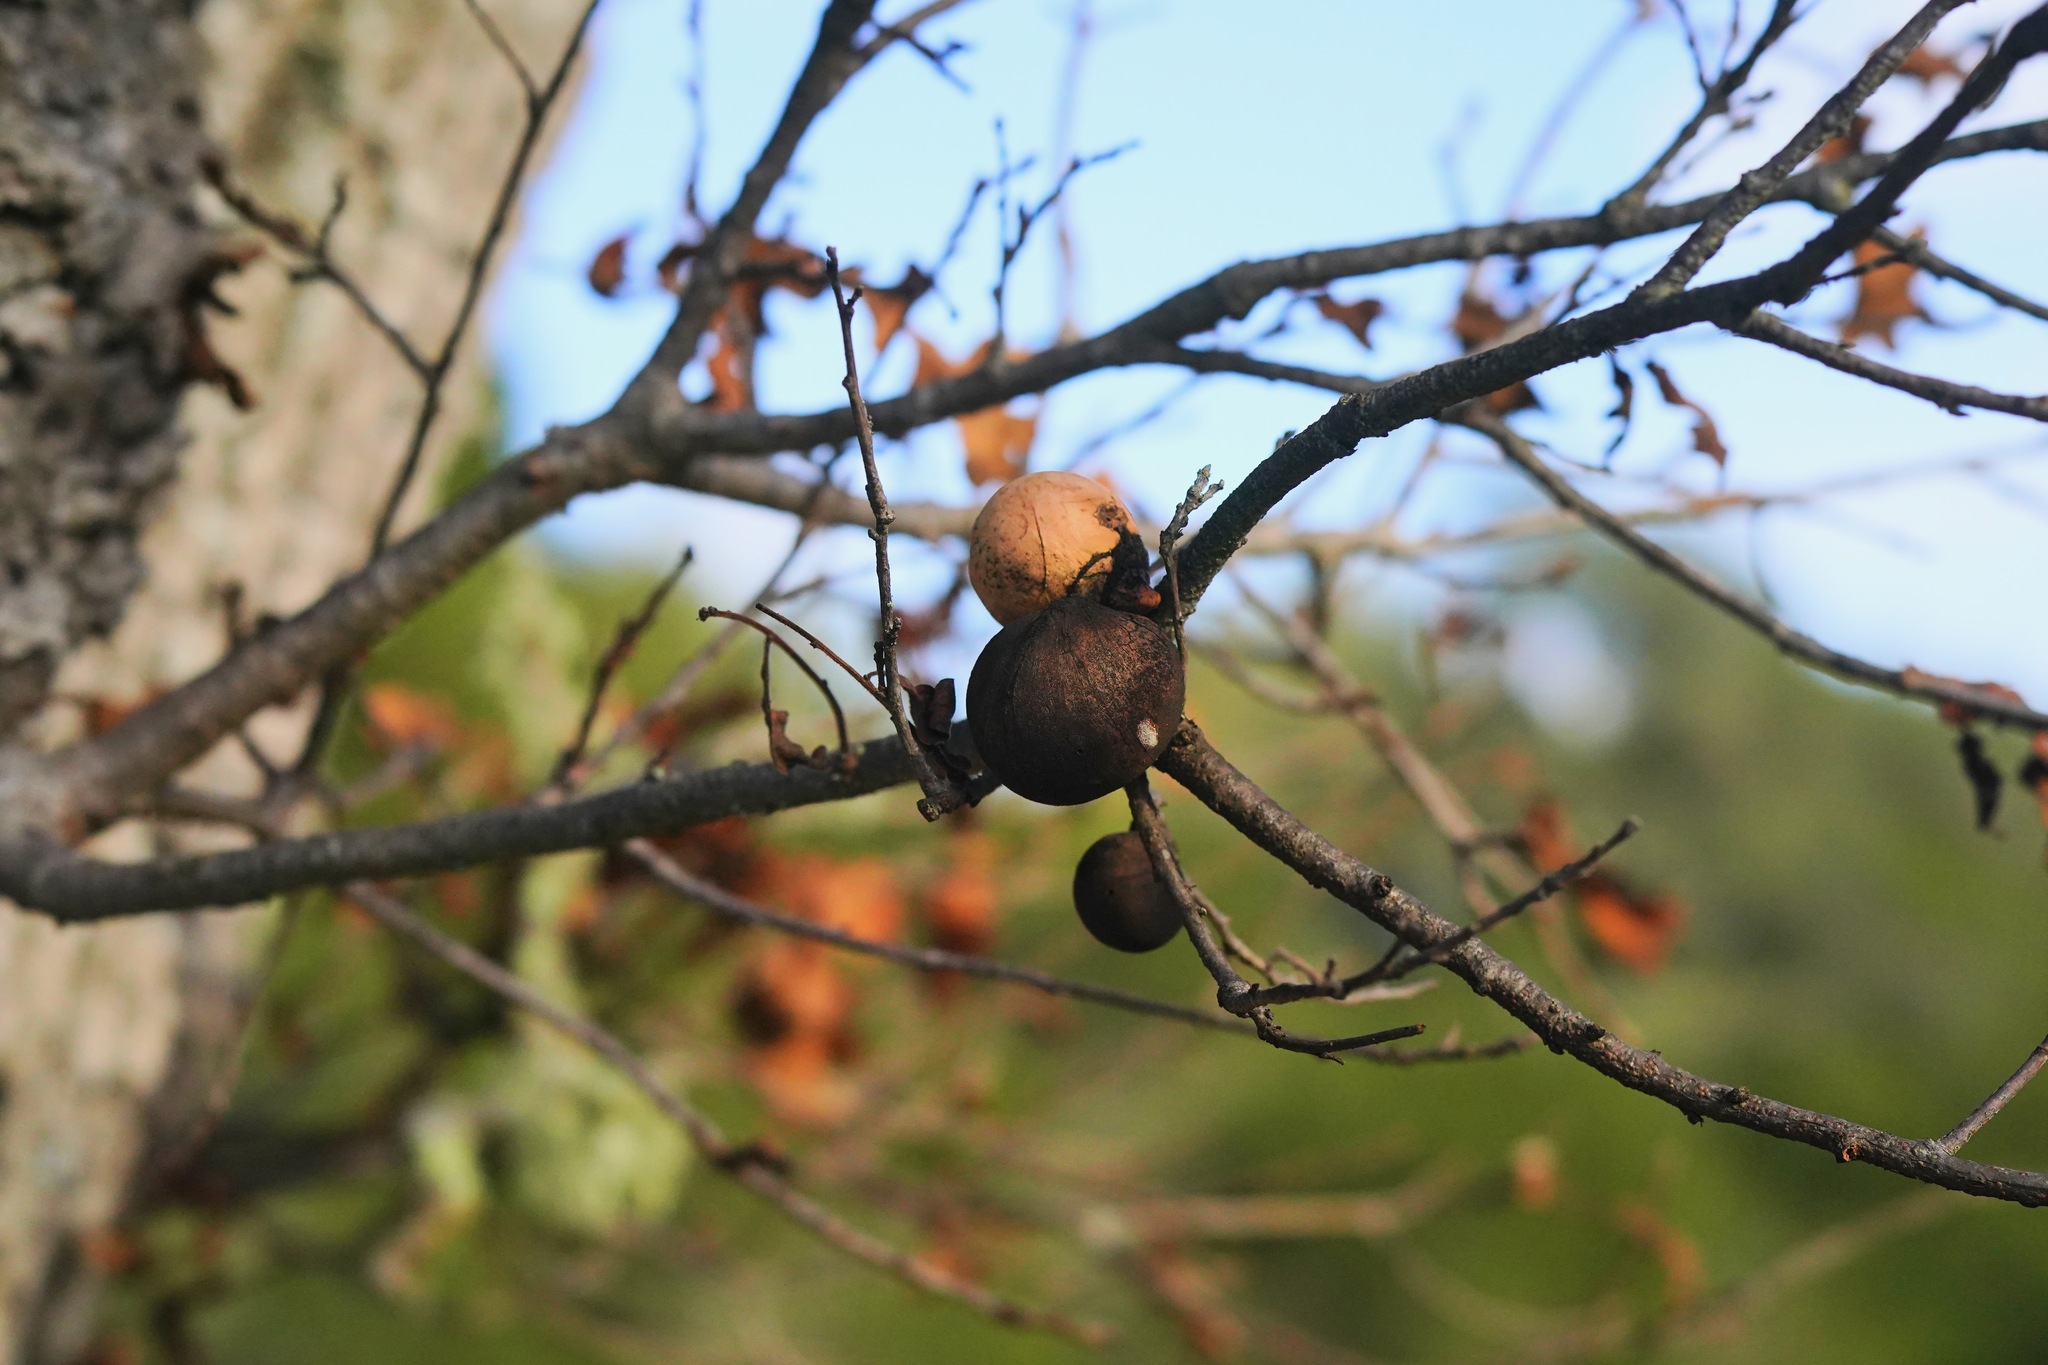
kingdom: Animalia
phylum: Arthropoda
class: Insecta
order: Hymenoptera
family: Cynipidae
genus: Andricus
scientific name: Andricus quercuscalifornicus
